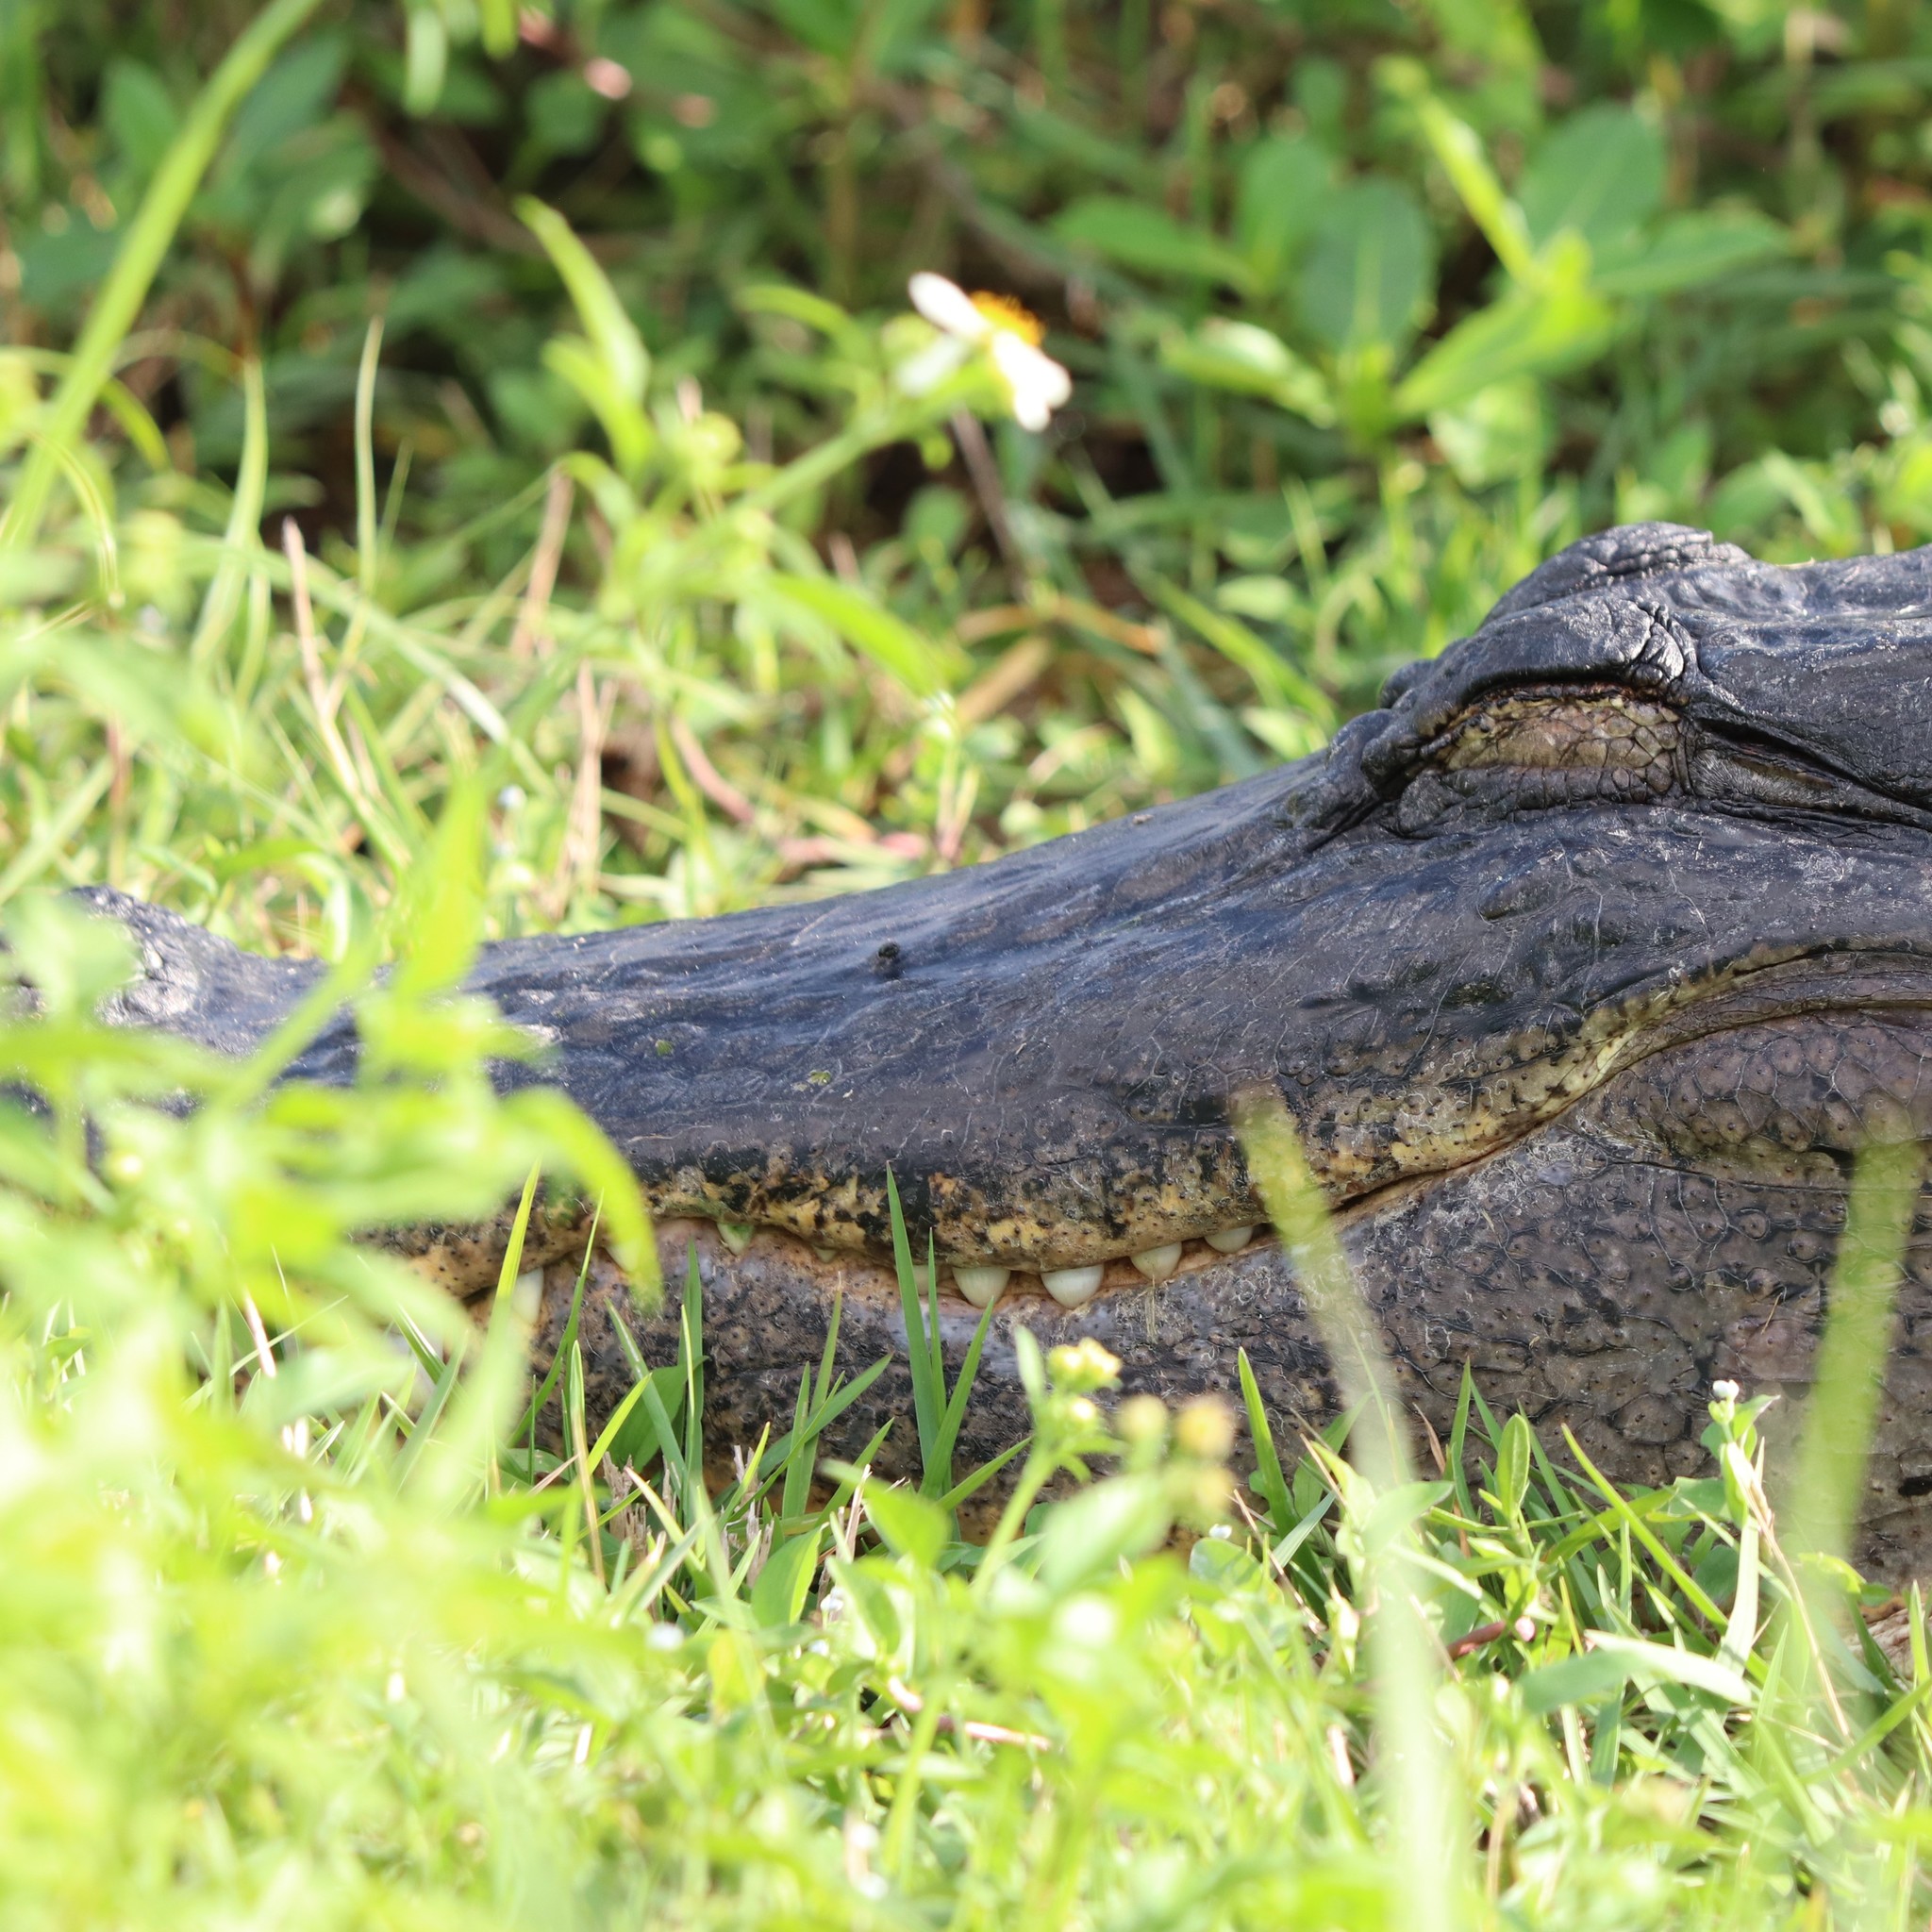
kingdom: Animalia
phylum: Chordata
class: Crocodylia
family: Alligatoridae
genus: Alligator
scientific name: Alligator mississippiensis
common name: American alligator
